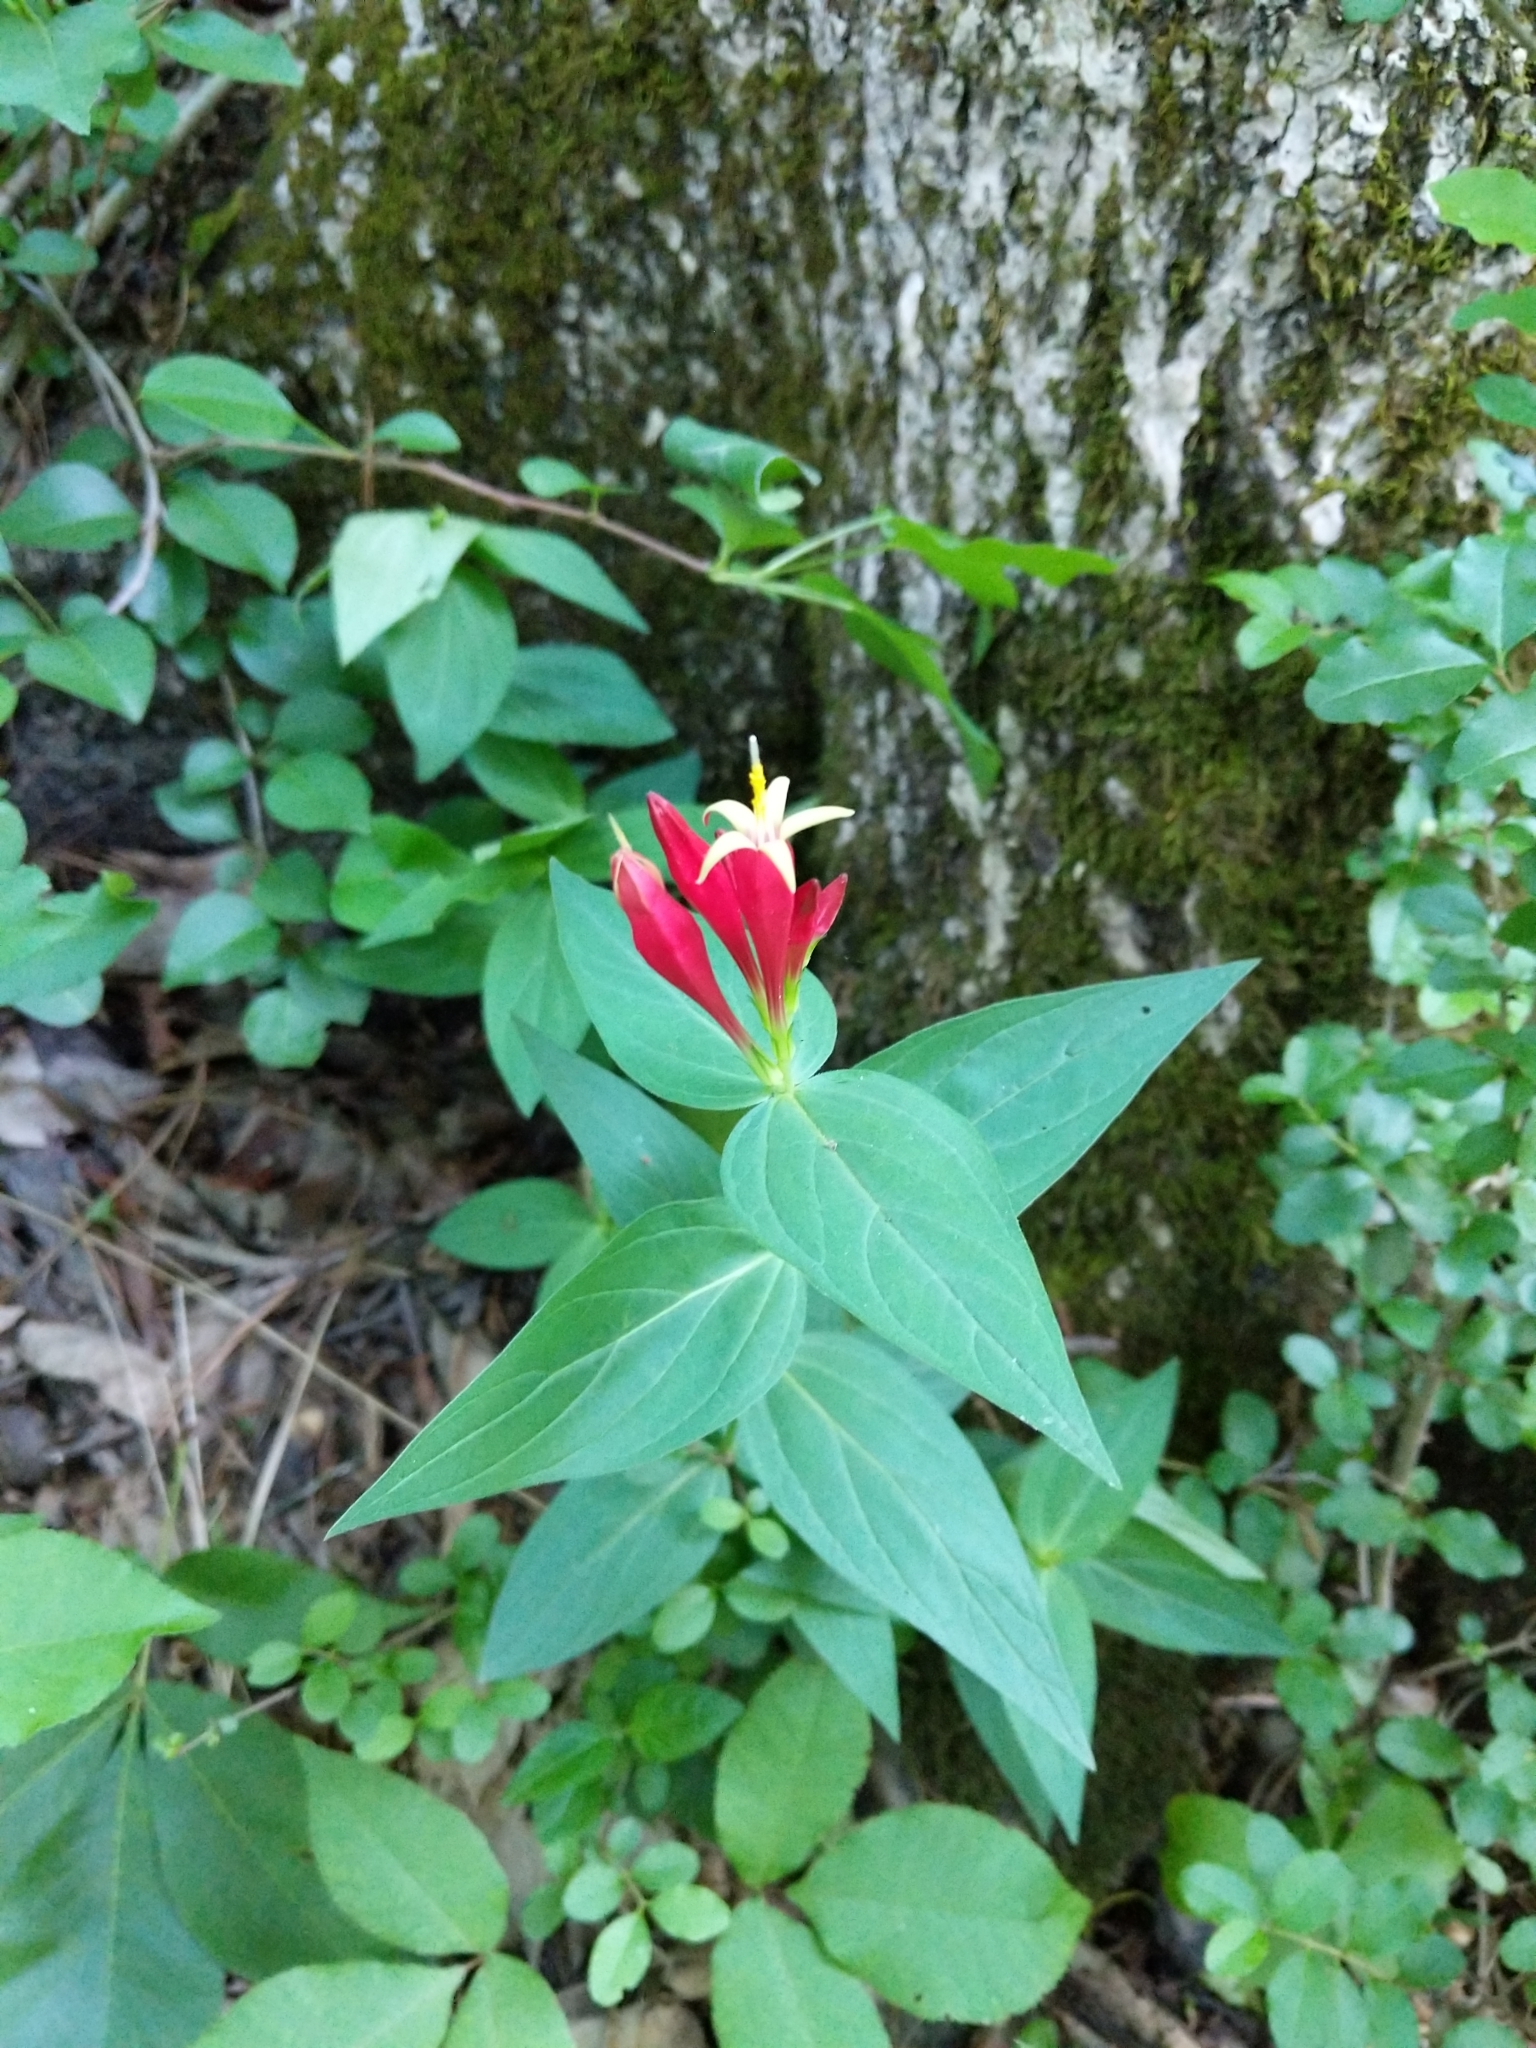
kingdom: Plantae
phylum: Tracheophyta
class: Magnoliopsida
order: Gentianales
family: Loganiaceae
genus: Spigelia
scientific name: Spigelia marilandica
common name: Indian-pink
